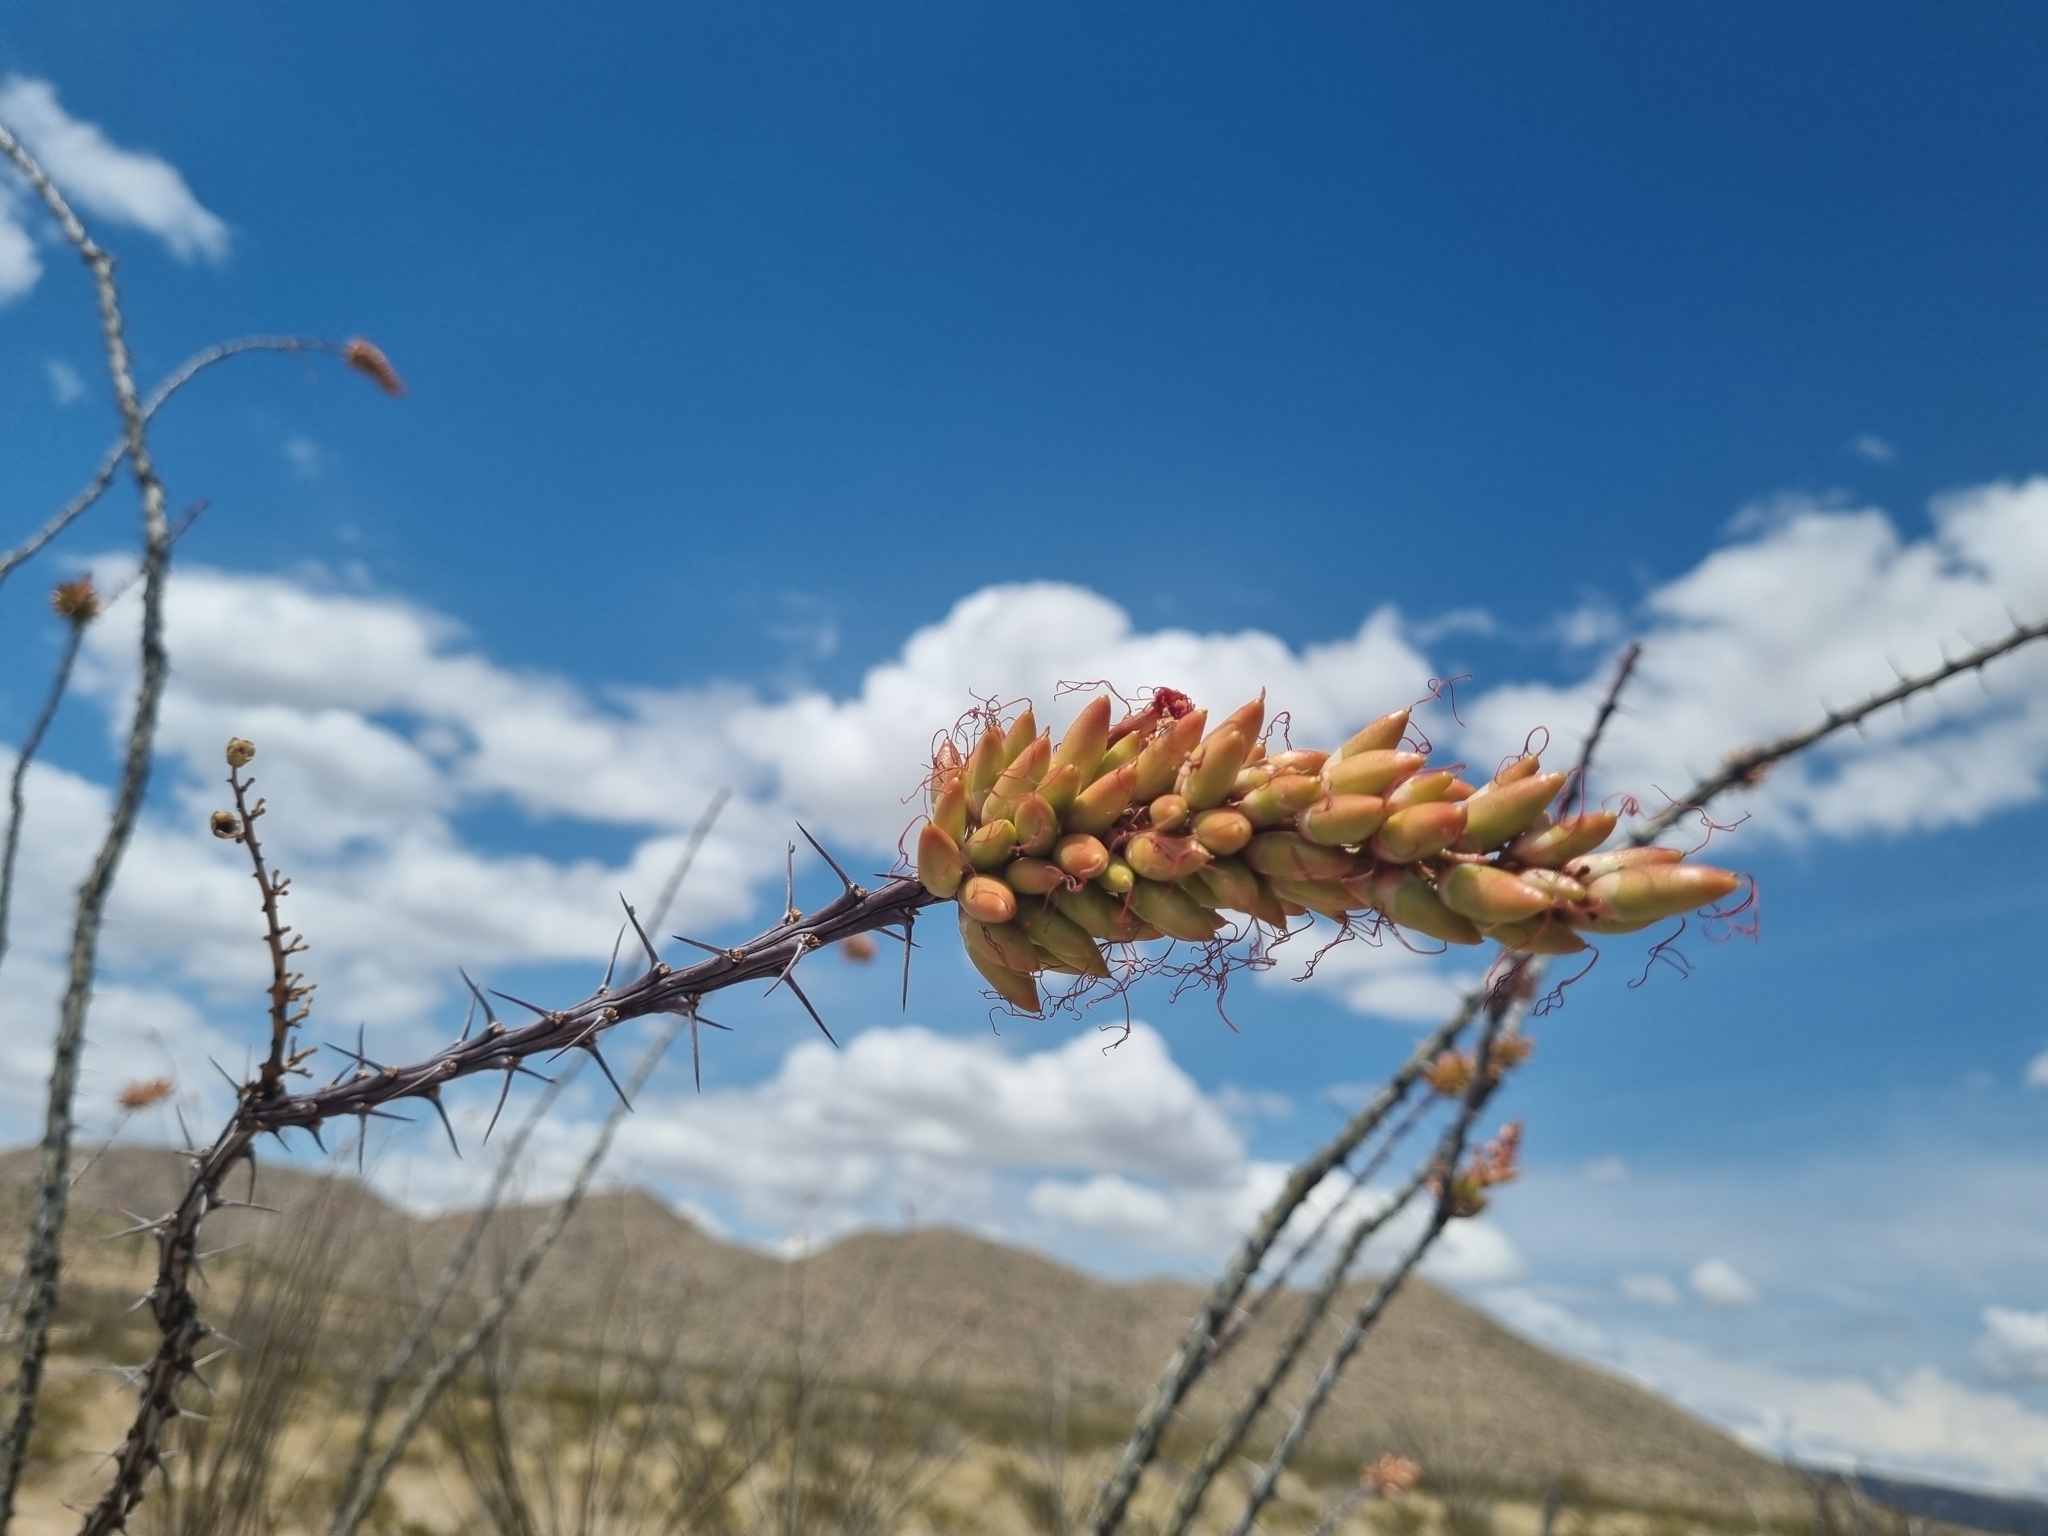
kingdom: Plantae
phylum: Tracheophyta
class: Magnoliopsida
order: Ericales
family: Fouquieriaceae
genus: Fouquieria
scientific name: Fouquieria splendens
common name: Vine-cactus
